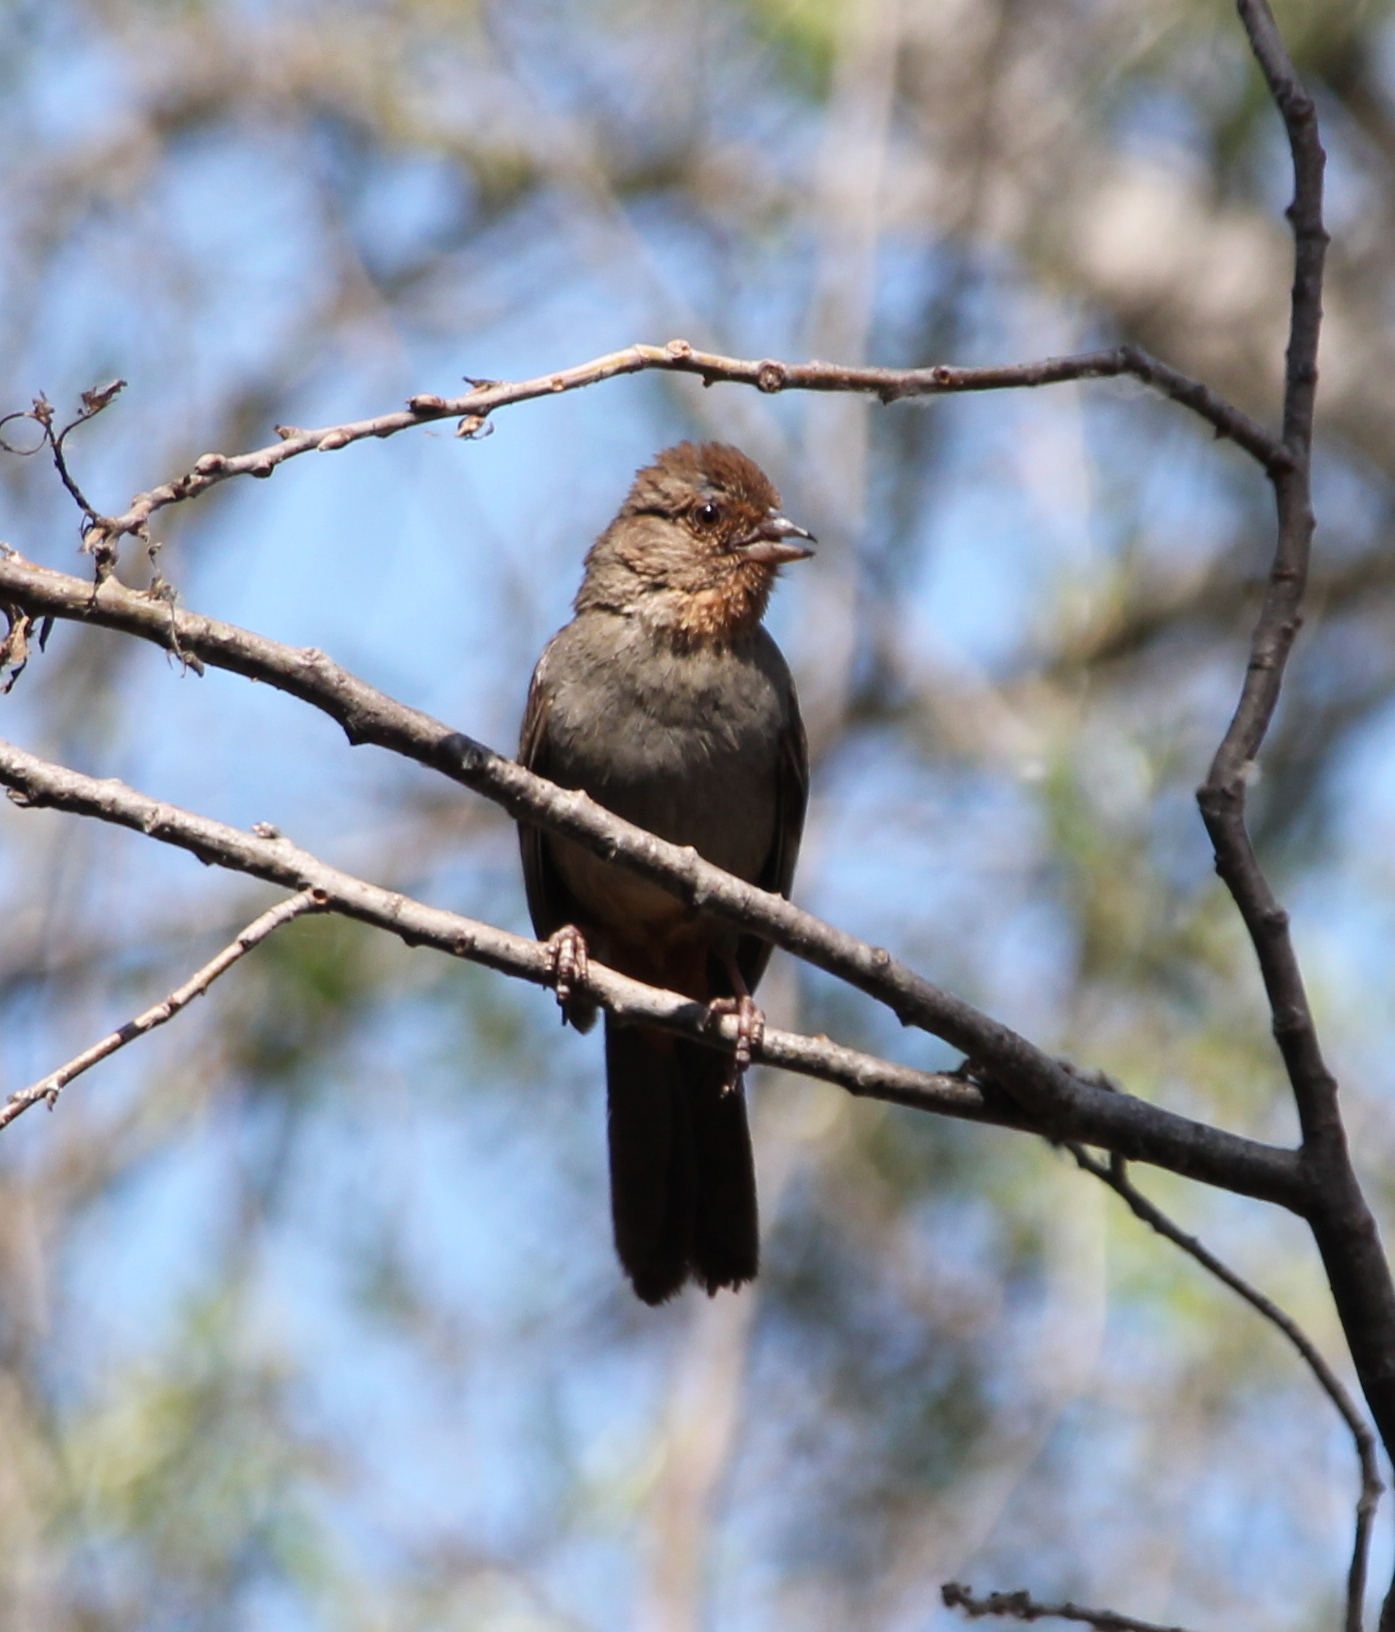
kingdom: Animalia
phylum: Chordata
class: Aves
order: Passeriformes
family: Passerellidae
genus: Melozone
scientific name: Melozone crissalis
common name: California towhee
